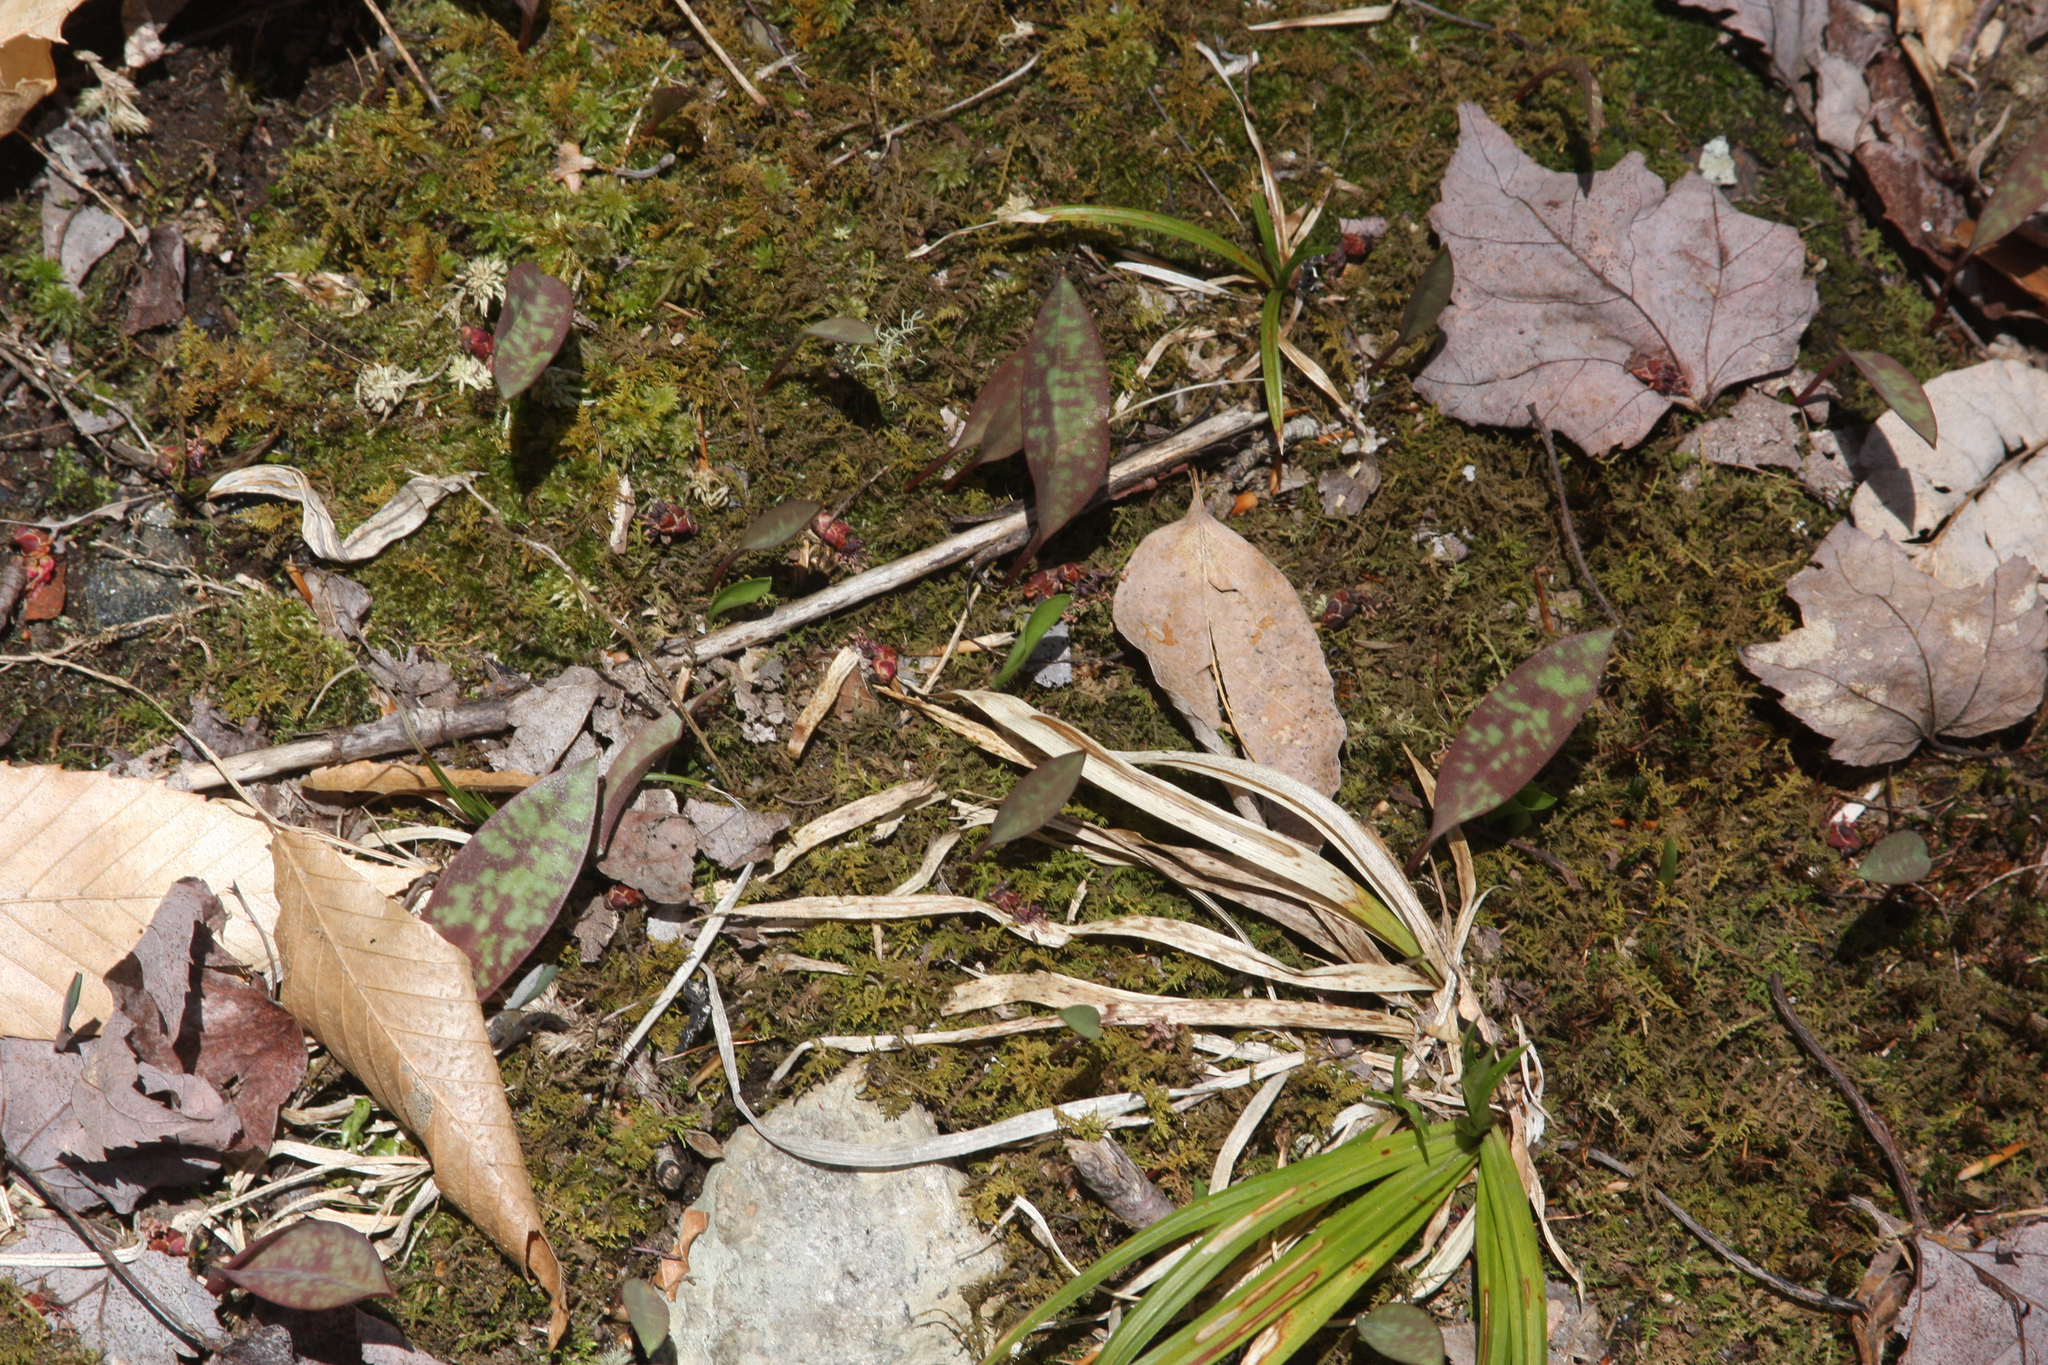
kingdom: Plantae
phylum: Tracheophyta
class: Liliopsida
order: Liliales
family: Liliaceae
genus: Erythronium
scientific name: Erythronium americanum
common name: Yellow adder's-tongue
